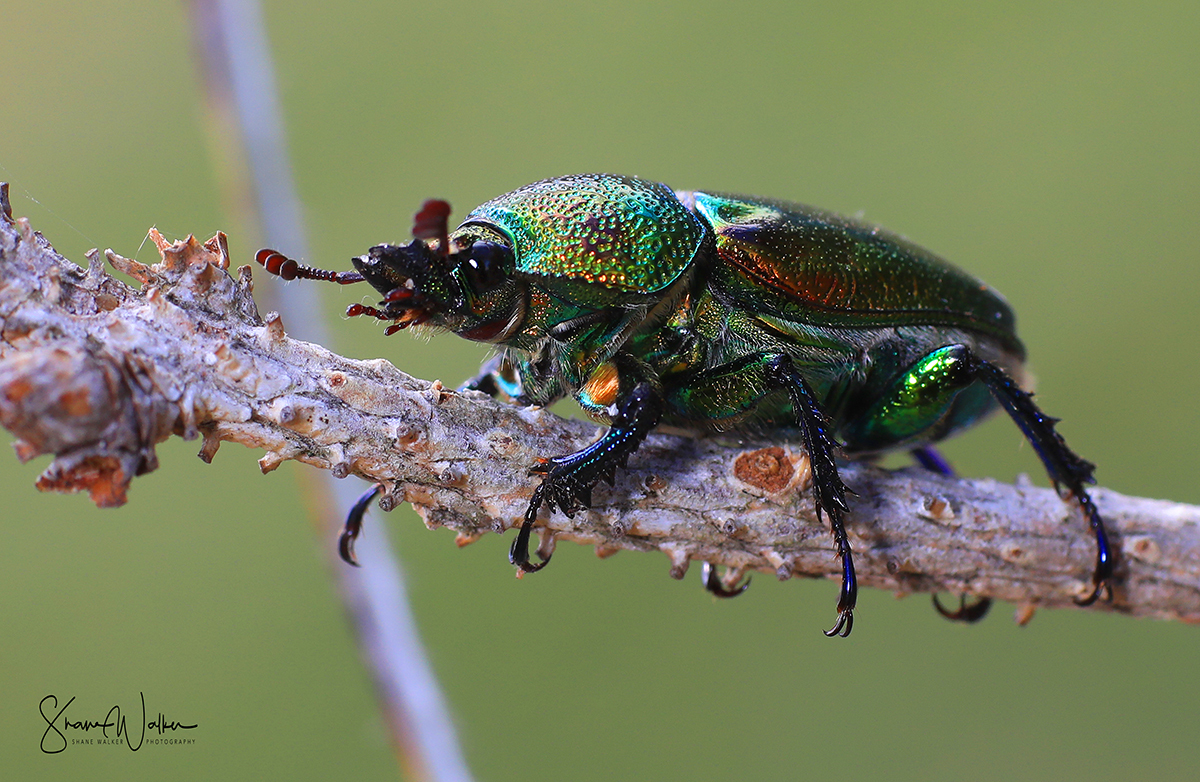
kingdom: Animalia
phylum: Arthropoda
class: Insecta
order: Coleoptera
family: Lucanidae
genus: Lamprima
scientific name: Lamprima aurata
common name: Golden stag beetle
